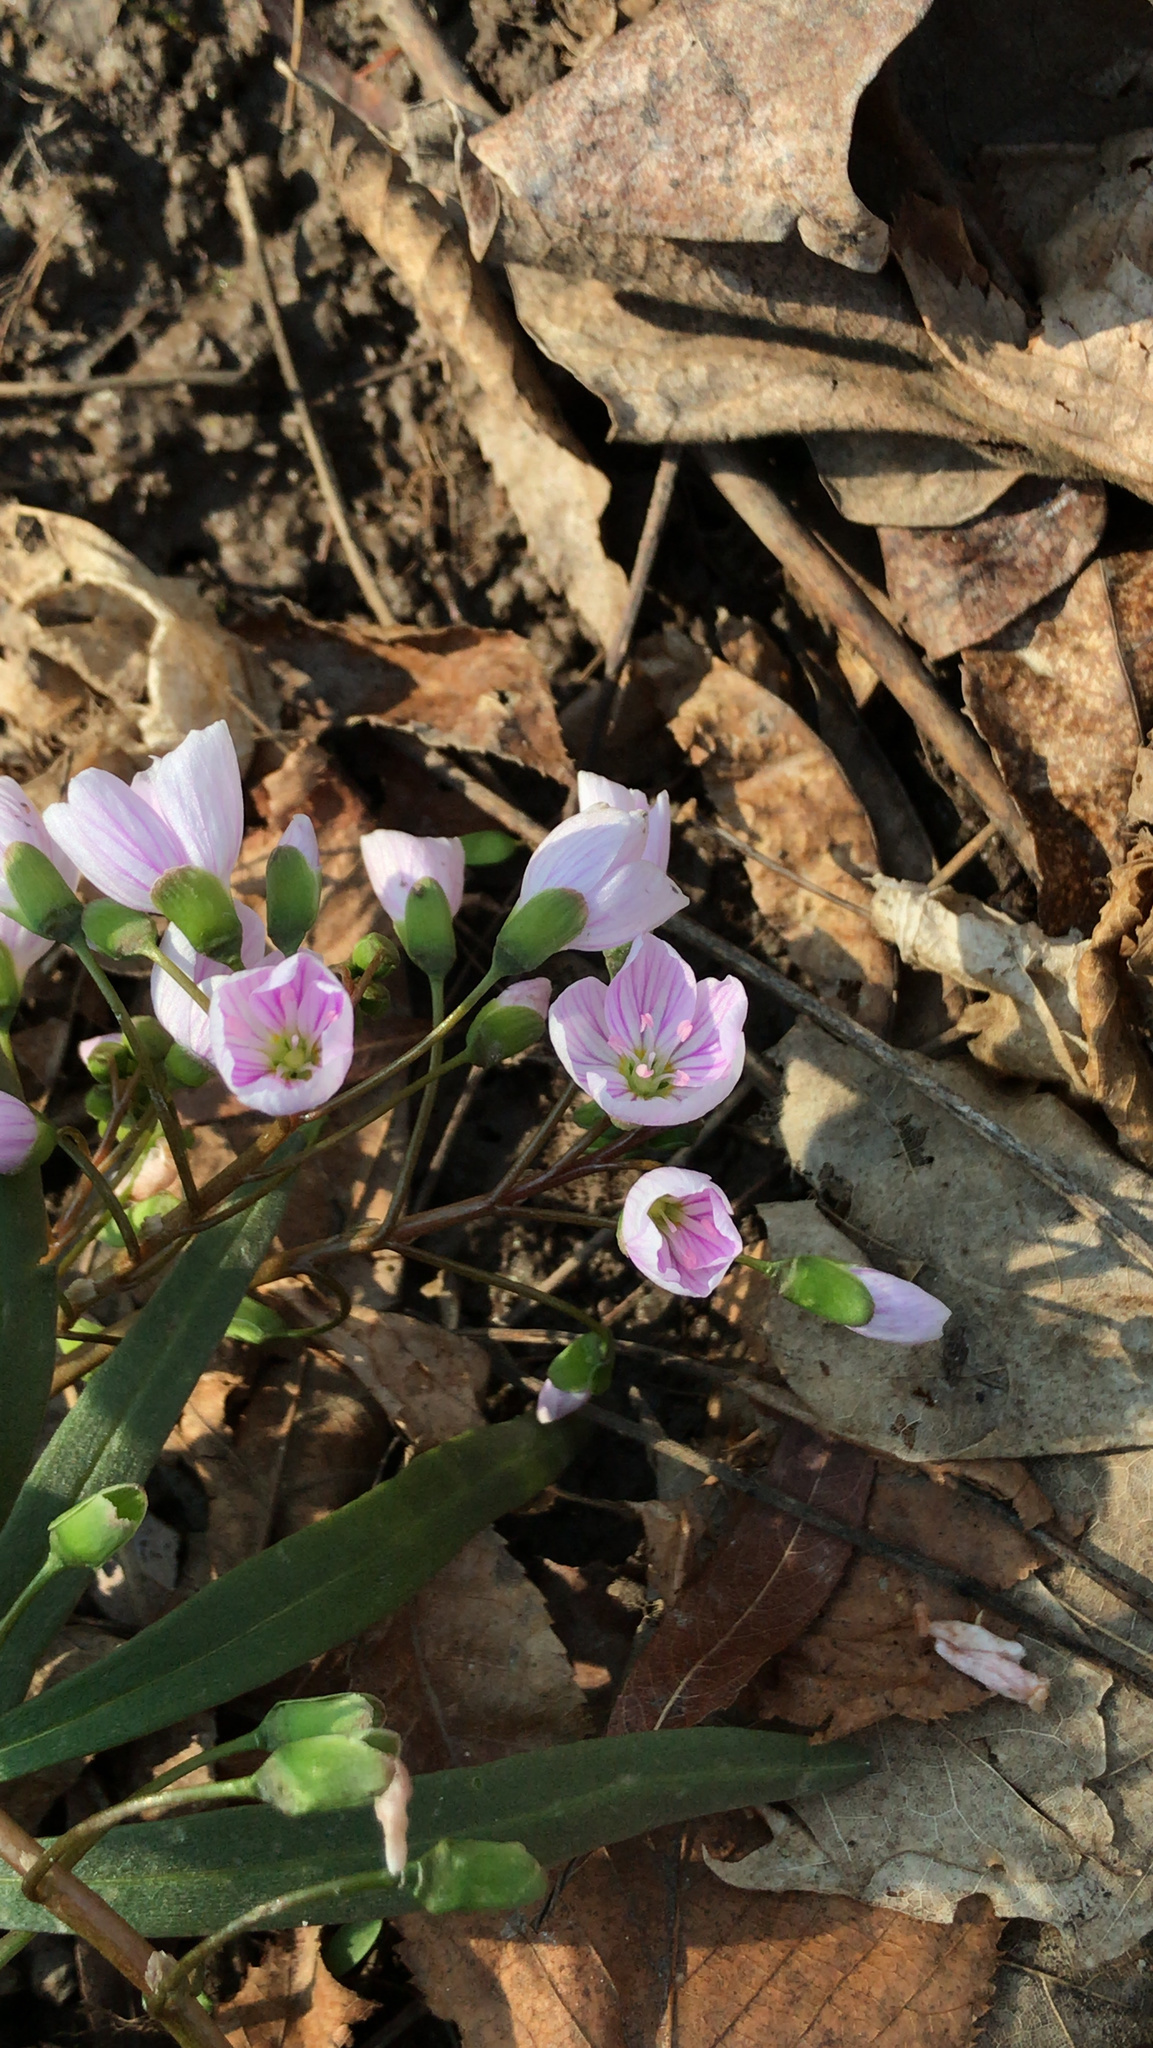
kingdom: Plantae
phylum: Tracheophyta
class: Magnoliopsida
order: Caryophyllales
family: Montiaceae
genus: Claytonia
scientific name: Claytonia virginica
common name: Virginia springbeauty
